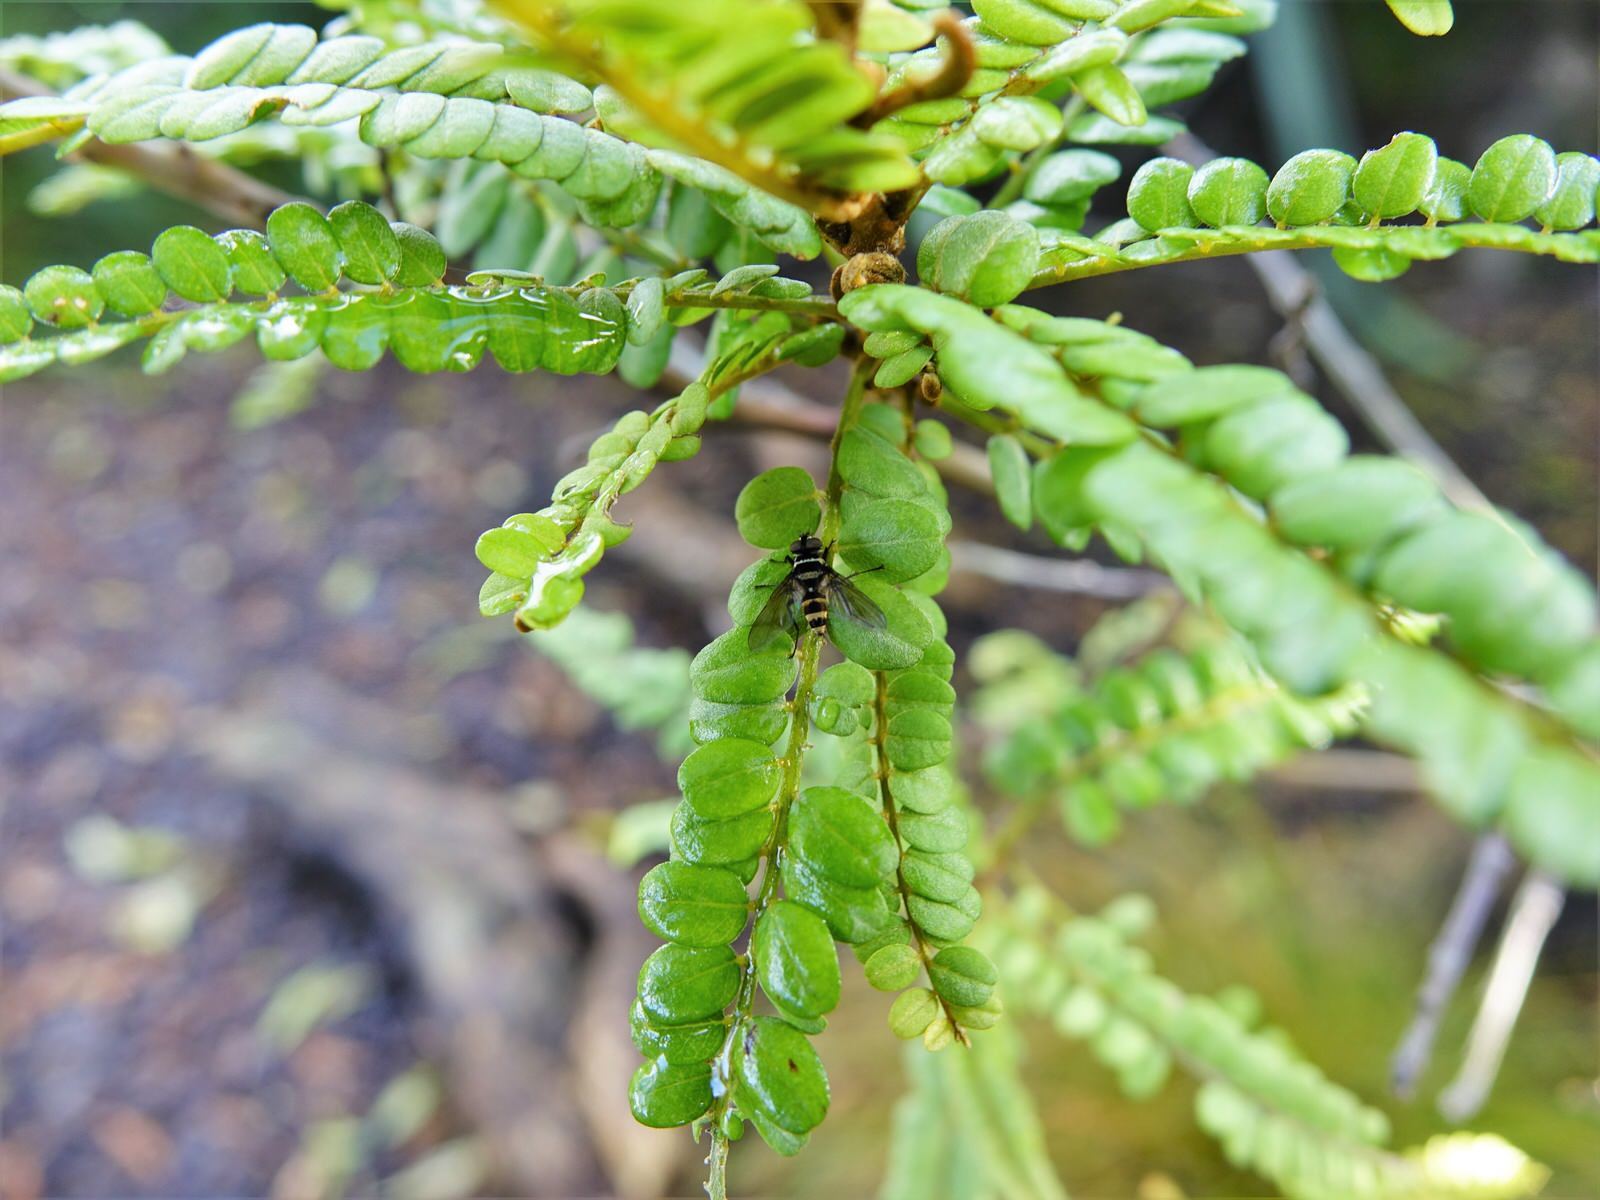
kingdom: Animalia
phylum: Arthropoda
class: Insecta
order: Diptera
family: Tachinidae
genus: Trigonospila
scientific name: Trigonospila brevifacies
